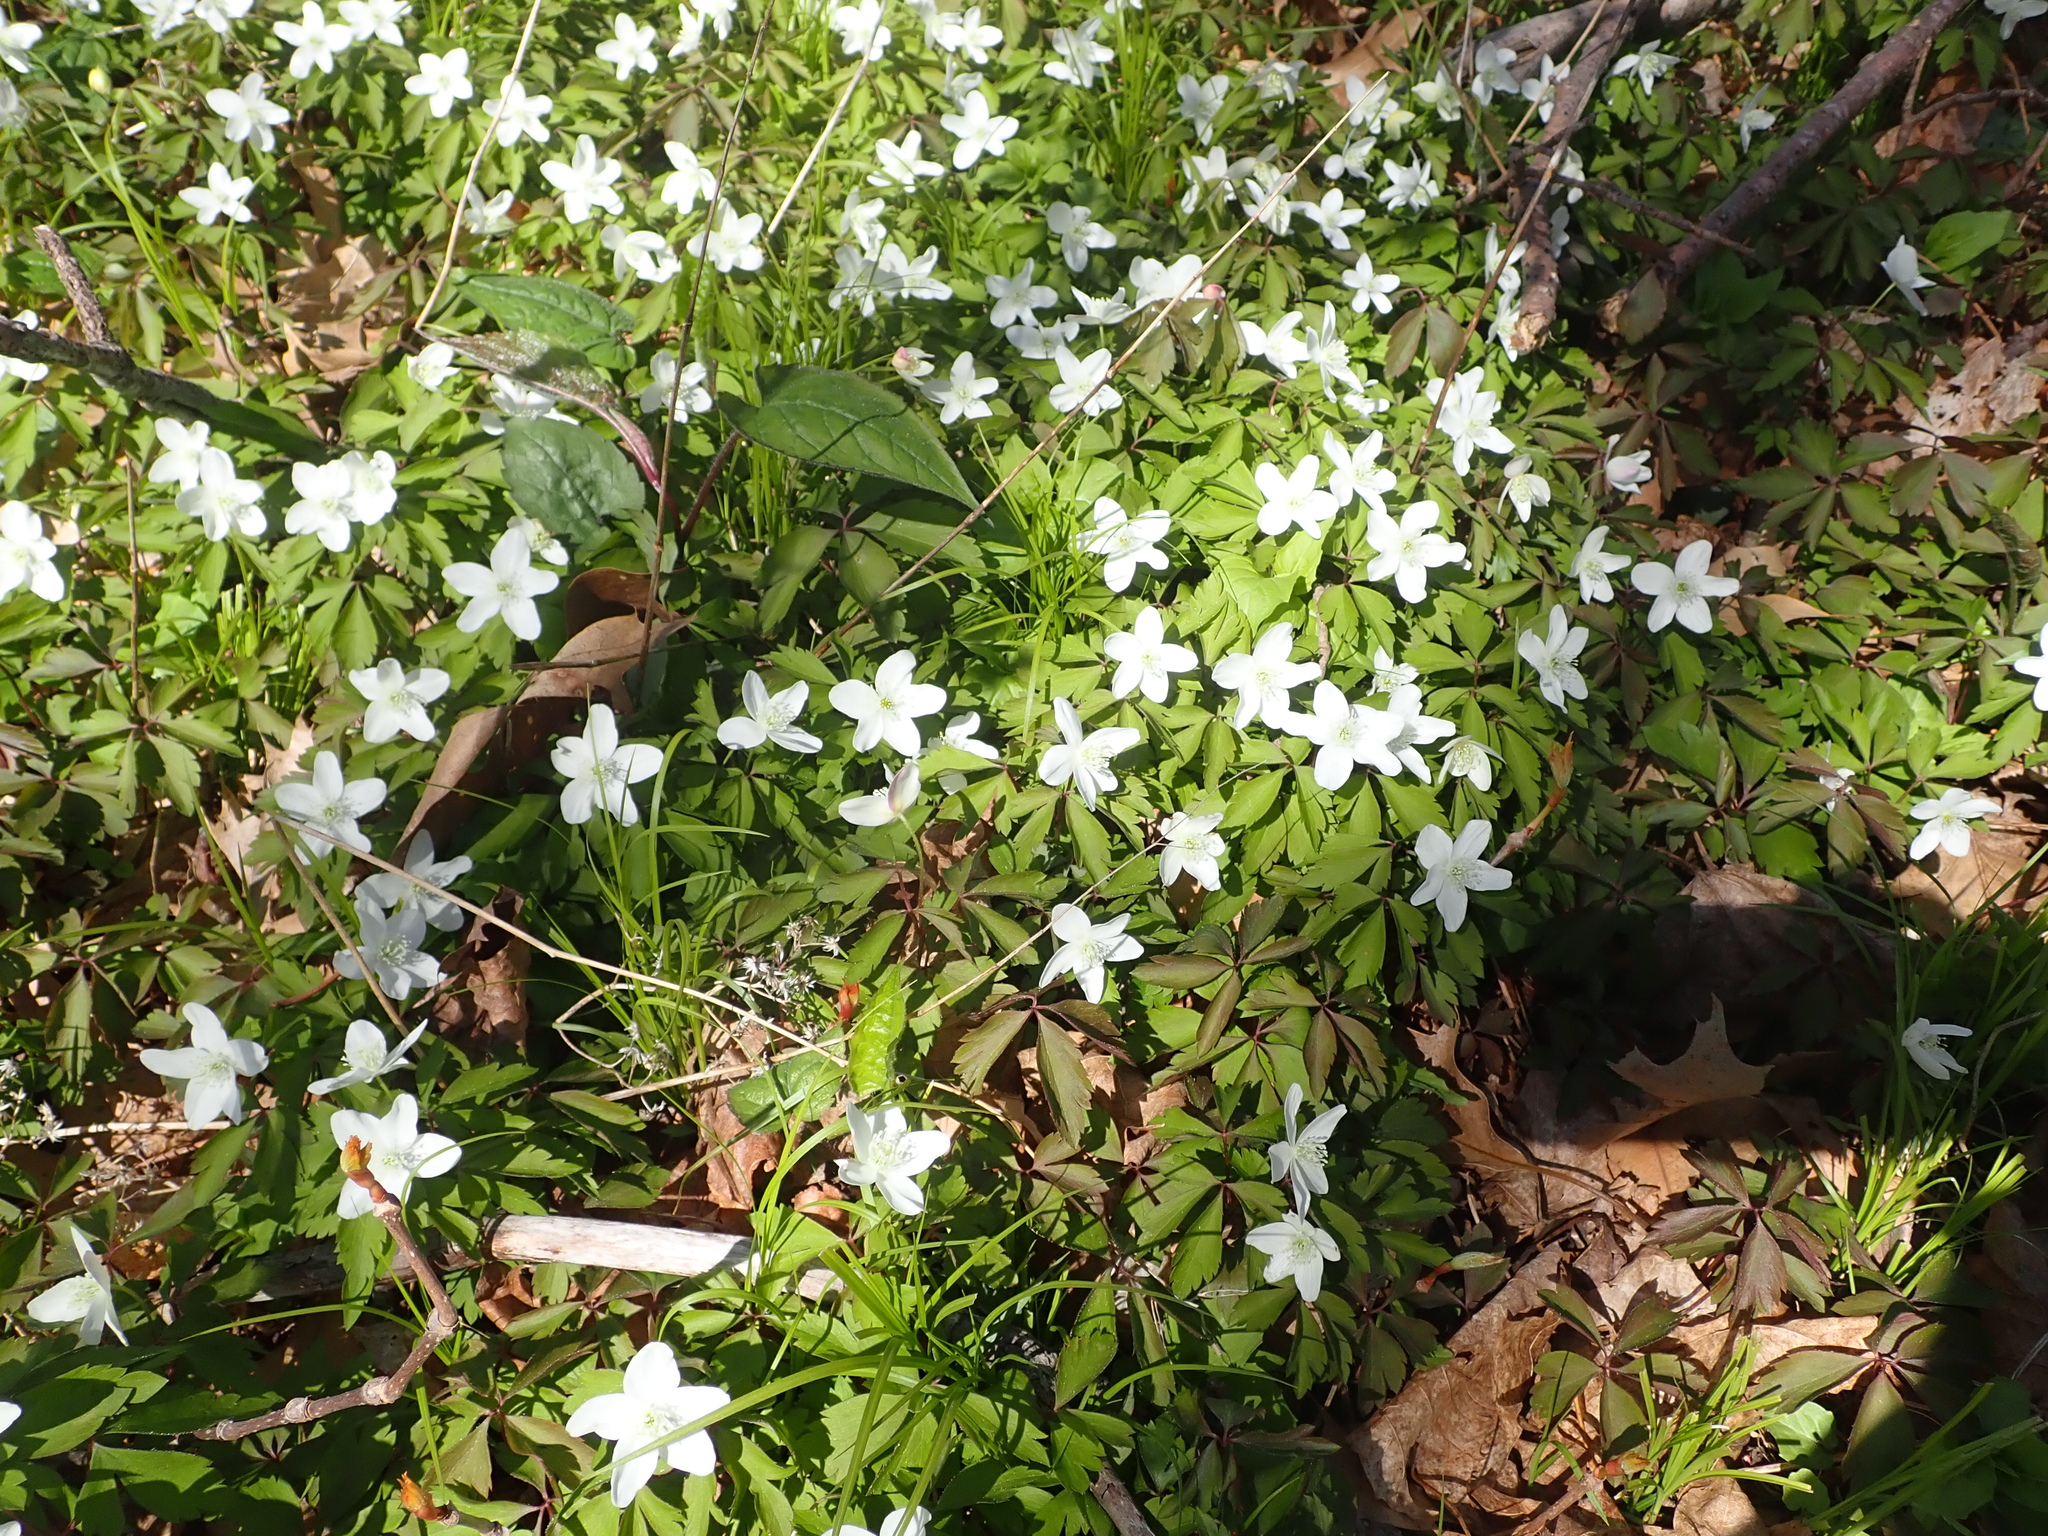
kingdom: Plantae
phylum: Tracheophyta
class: Magnoliopsida
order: Ranunculales
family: Ranunculaceae
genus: Anemone
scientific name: Anemone quinquefolia
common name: Wood anemone
